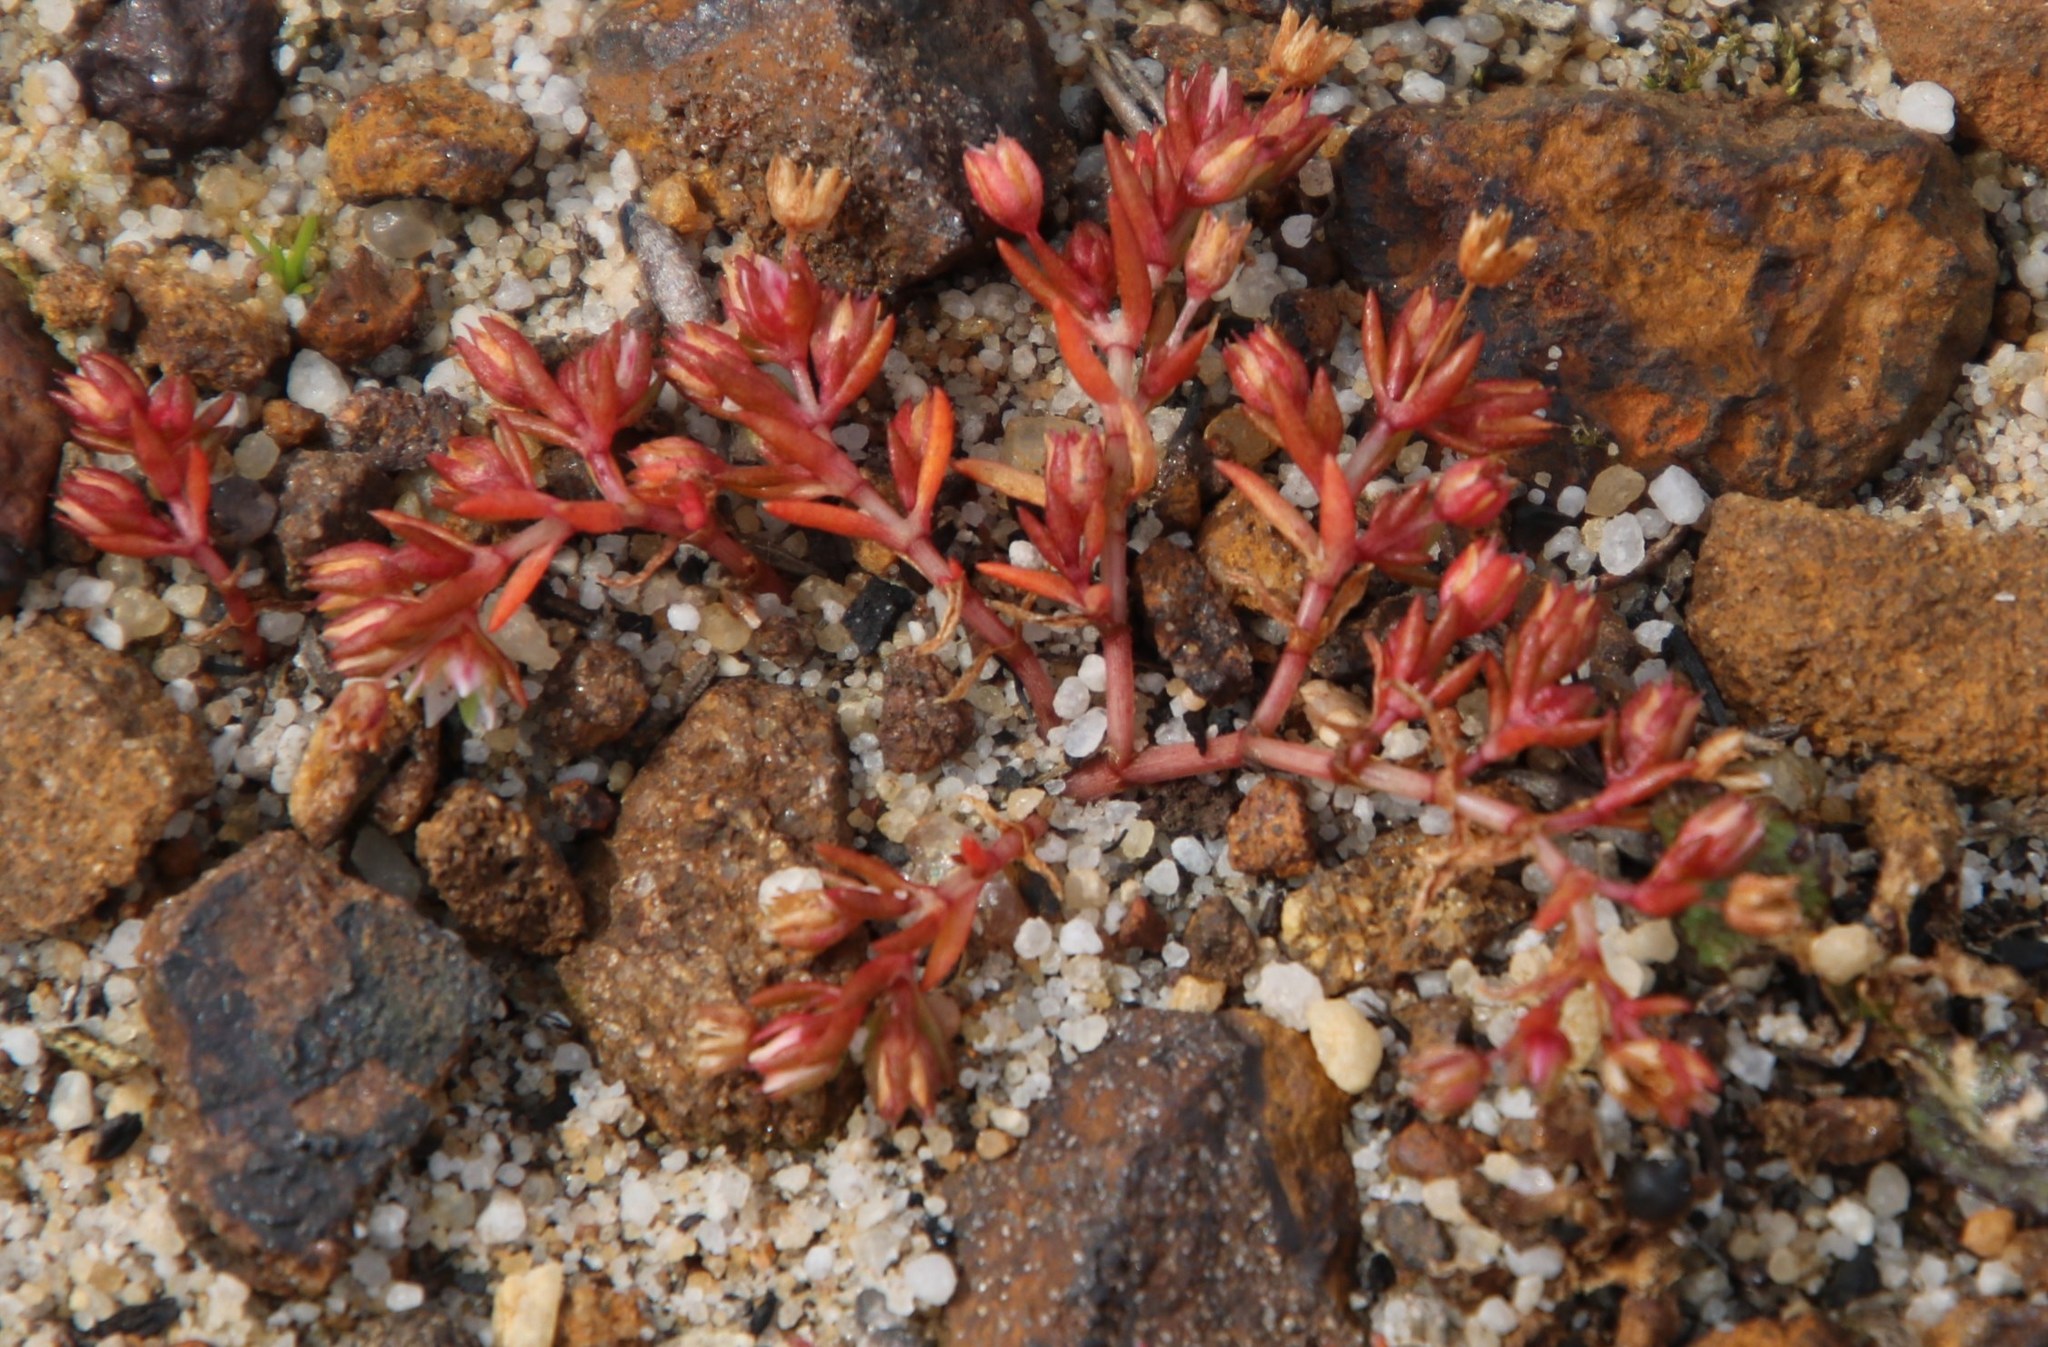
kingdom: Plantae
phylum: Tracheophyta
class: Magnoliopsida
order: Saxifragales
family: Crassulaceae
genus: Crassula
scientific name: Crassula vaillantii
